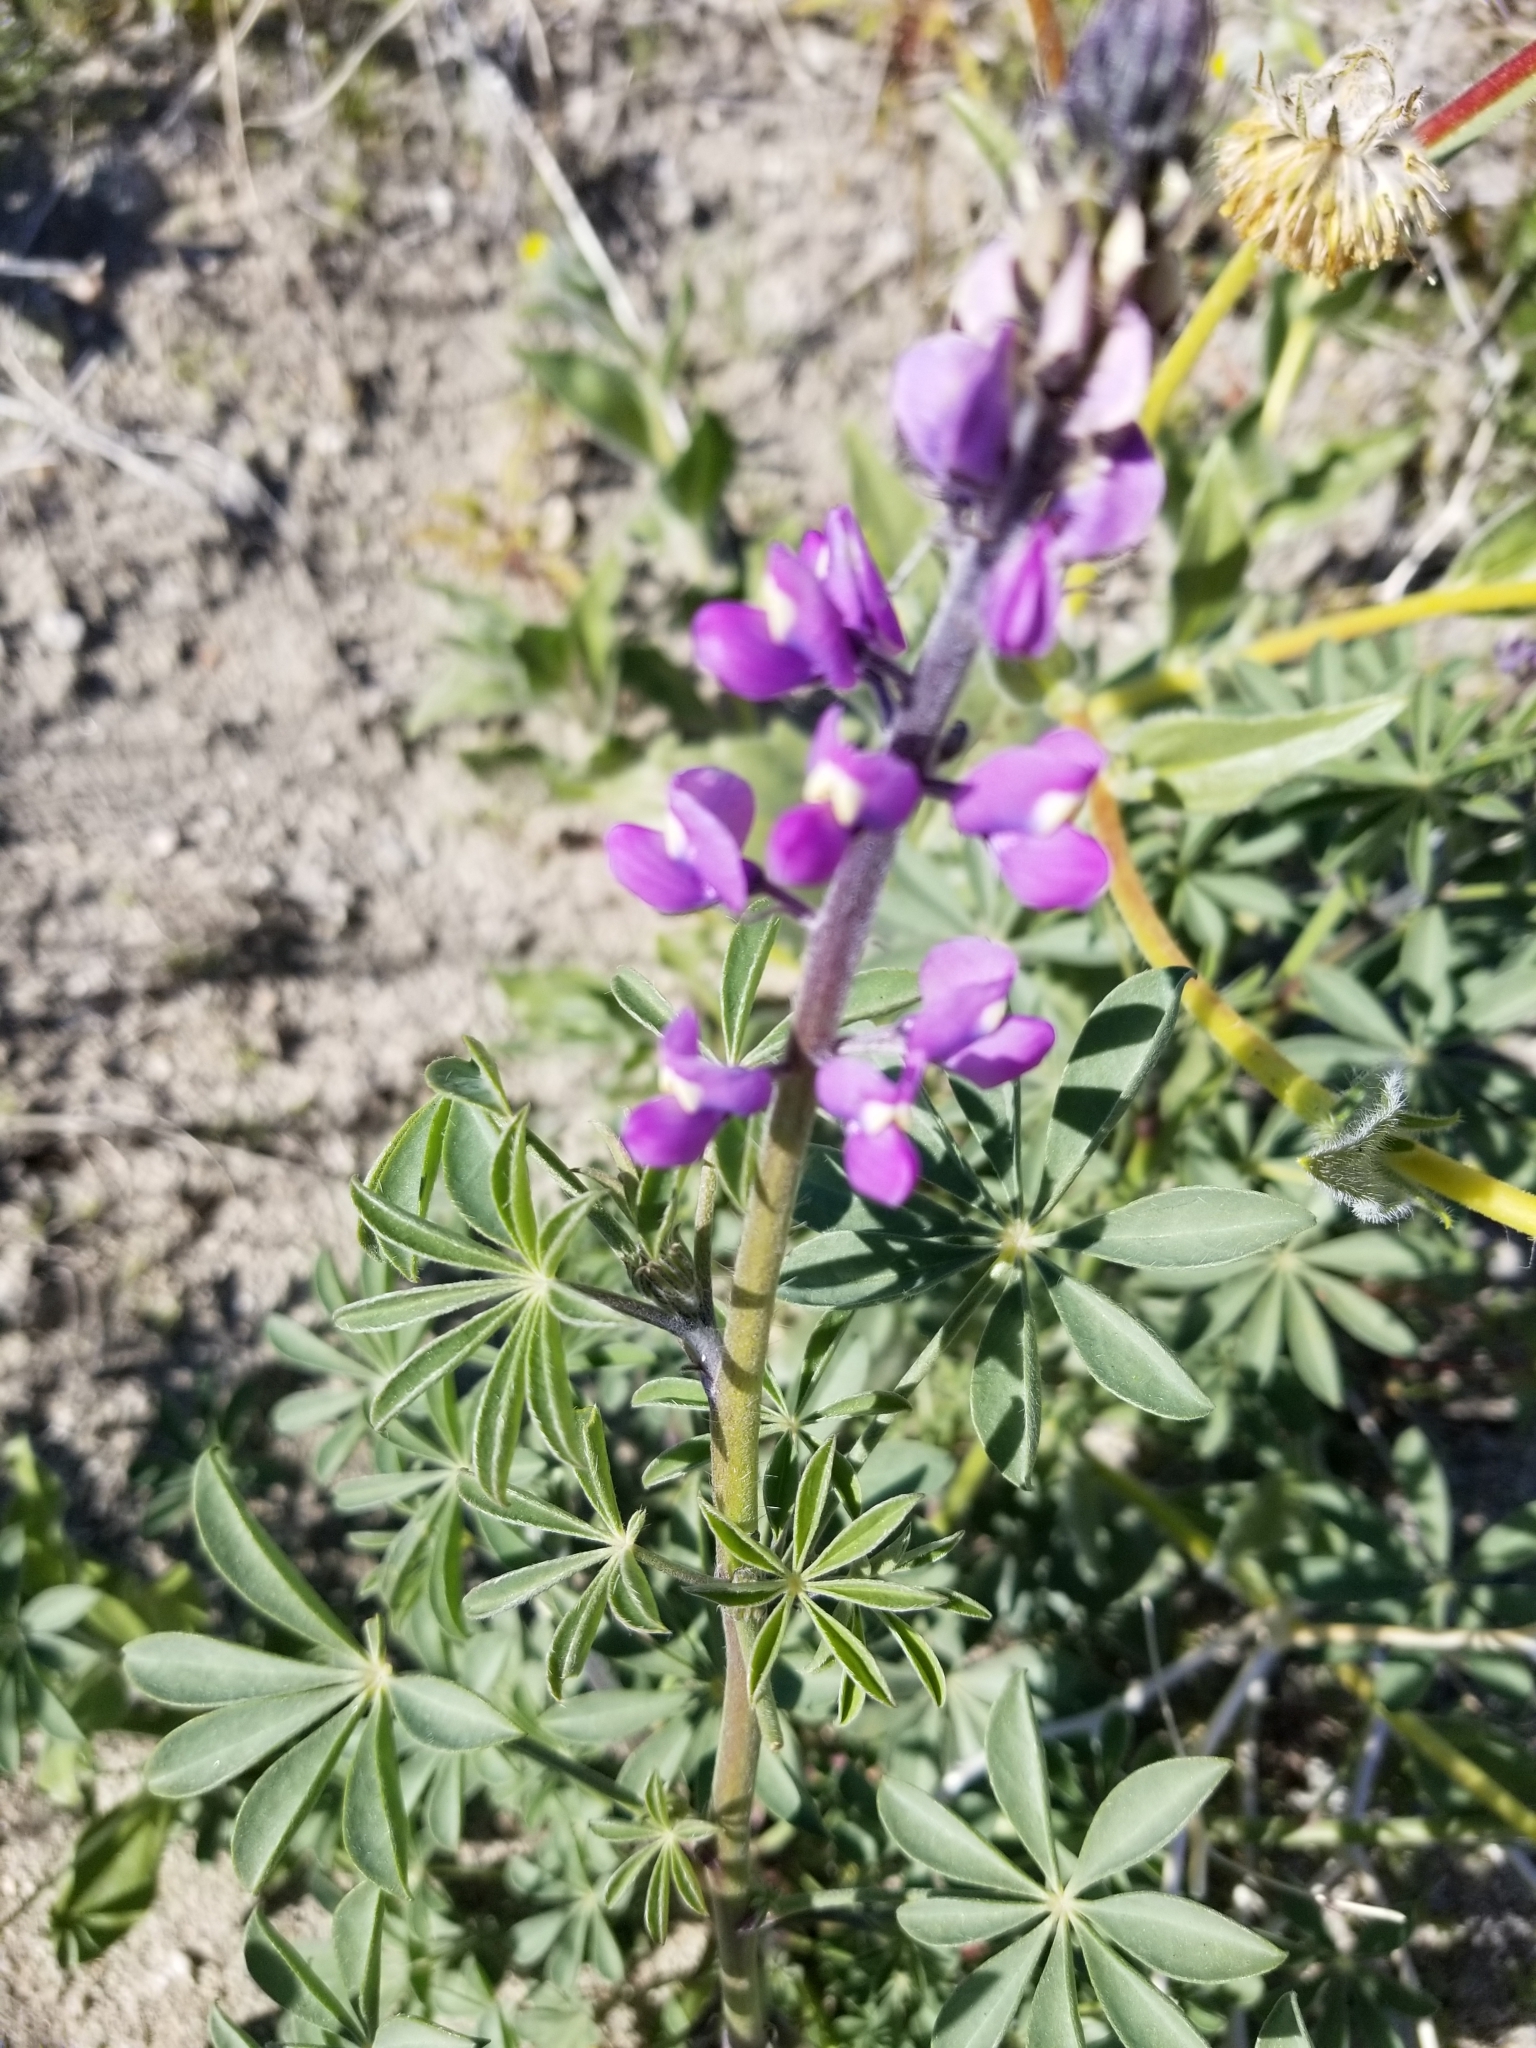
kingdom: Plantae
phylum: Tracheophyta
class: Magnoliopsida
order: Fabales
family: Fabaceae
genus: Lupinus
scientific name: Lupinus arizonicus
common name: Arizona lupine
